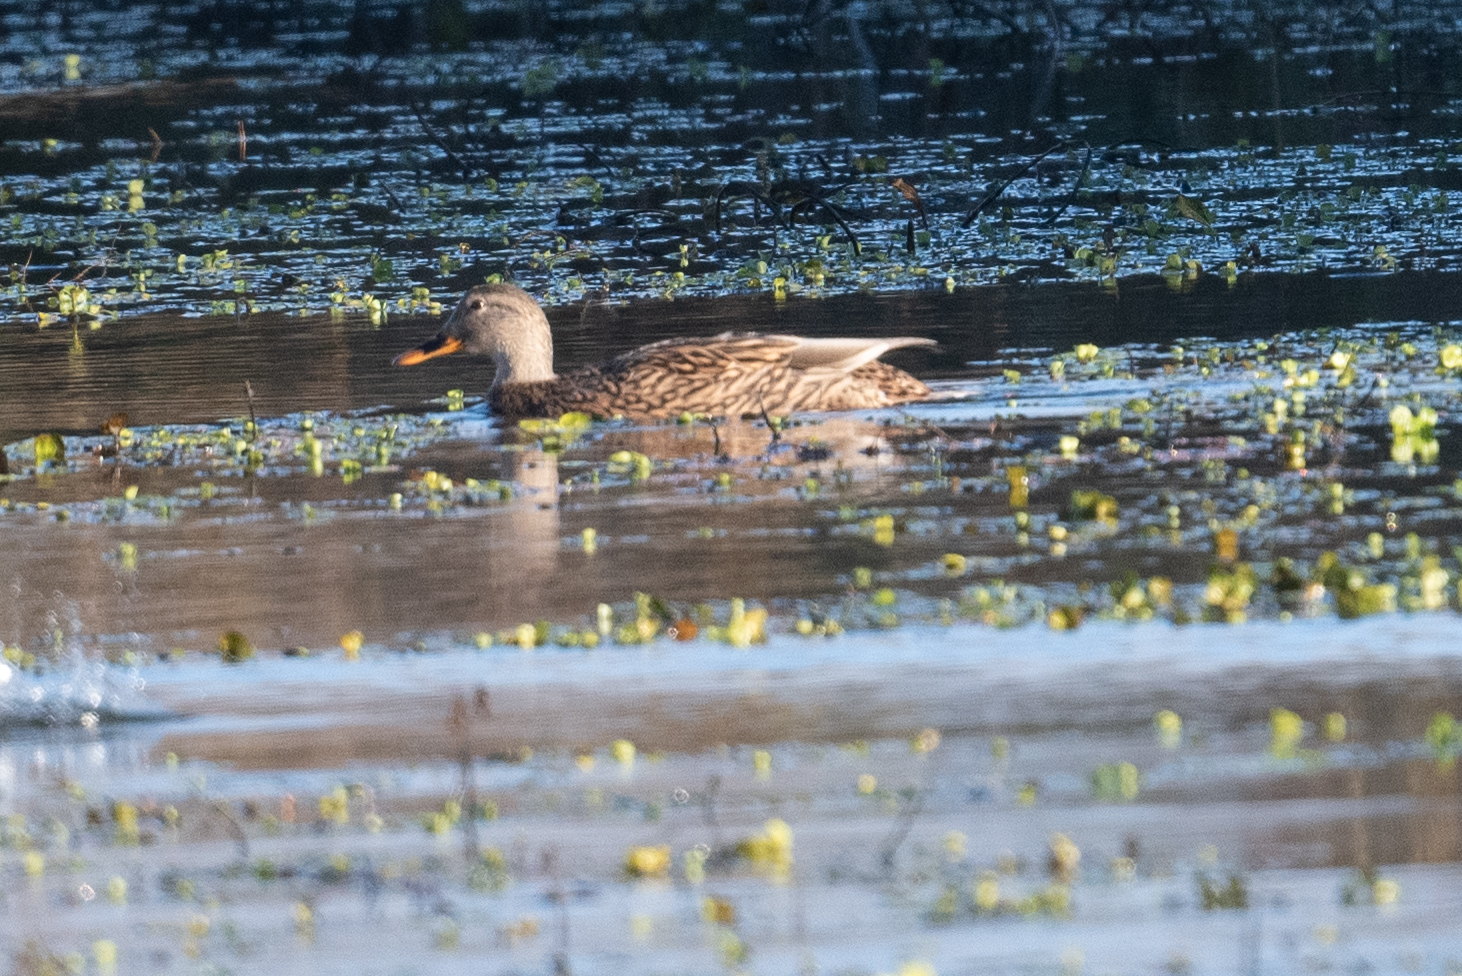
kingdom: Animalia
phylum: Chordata
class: Aves
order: Anseriformes
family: Anatidae
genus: Anas
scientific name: Anas platyrhynchos
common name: Mallard
